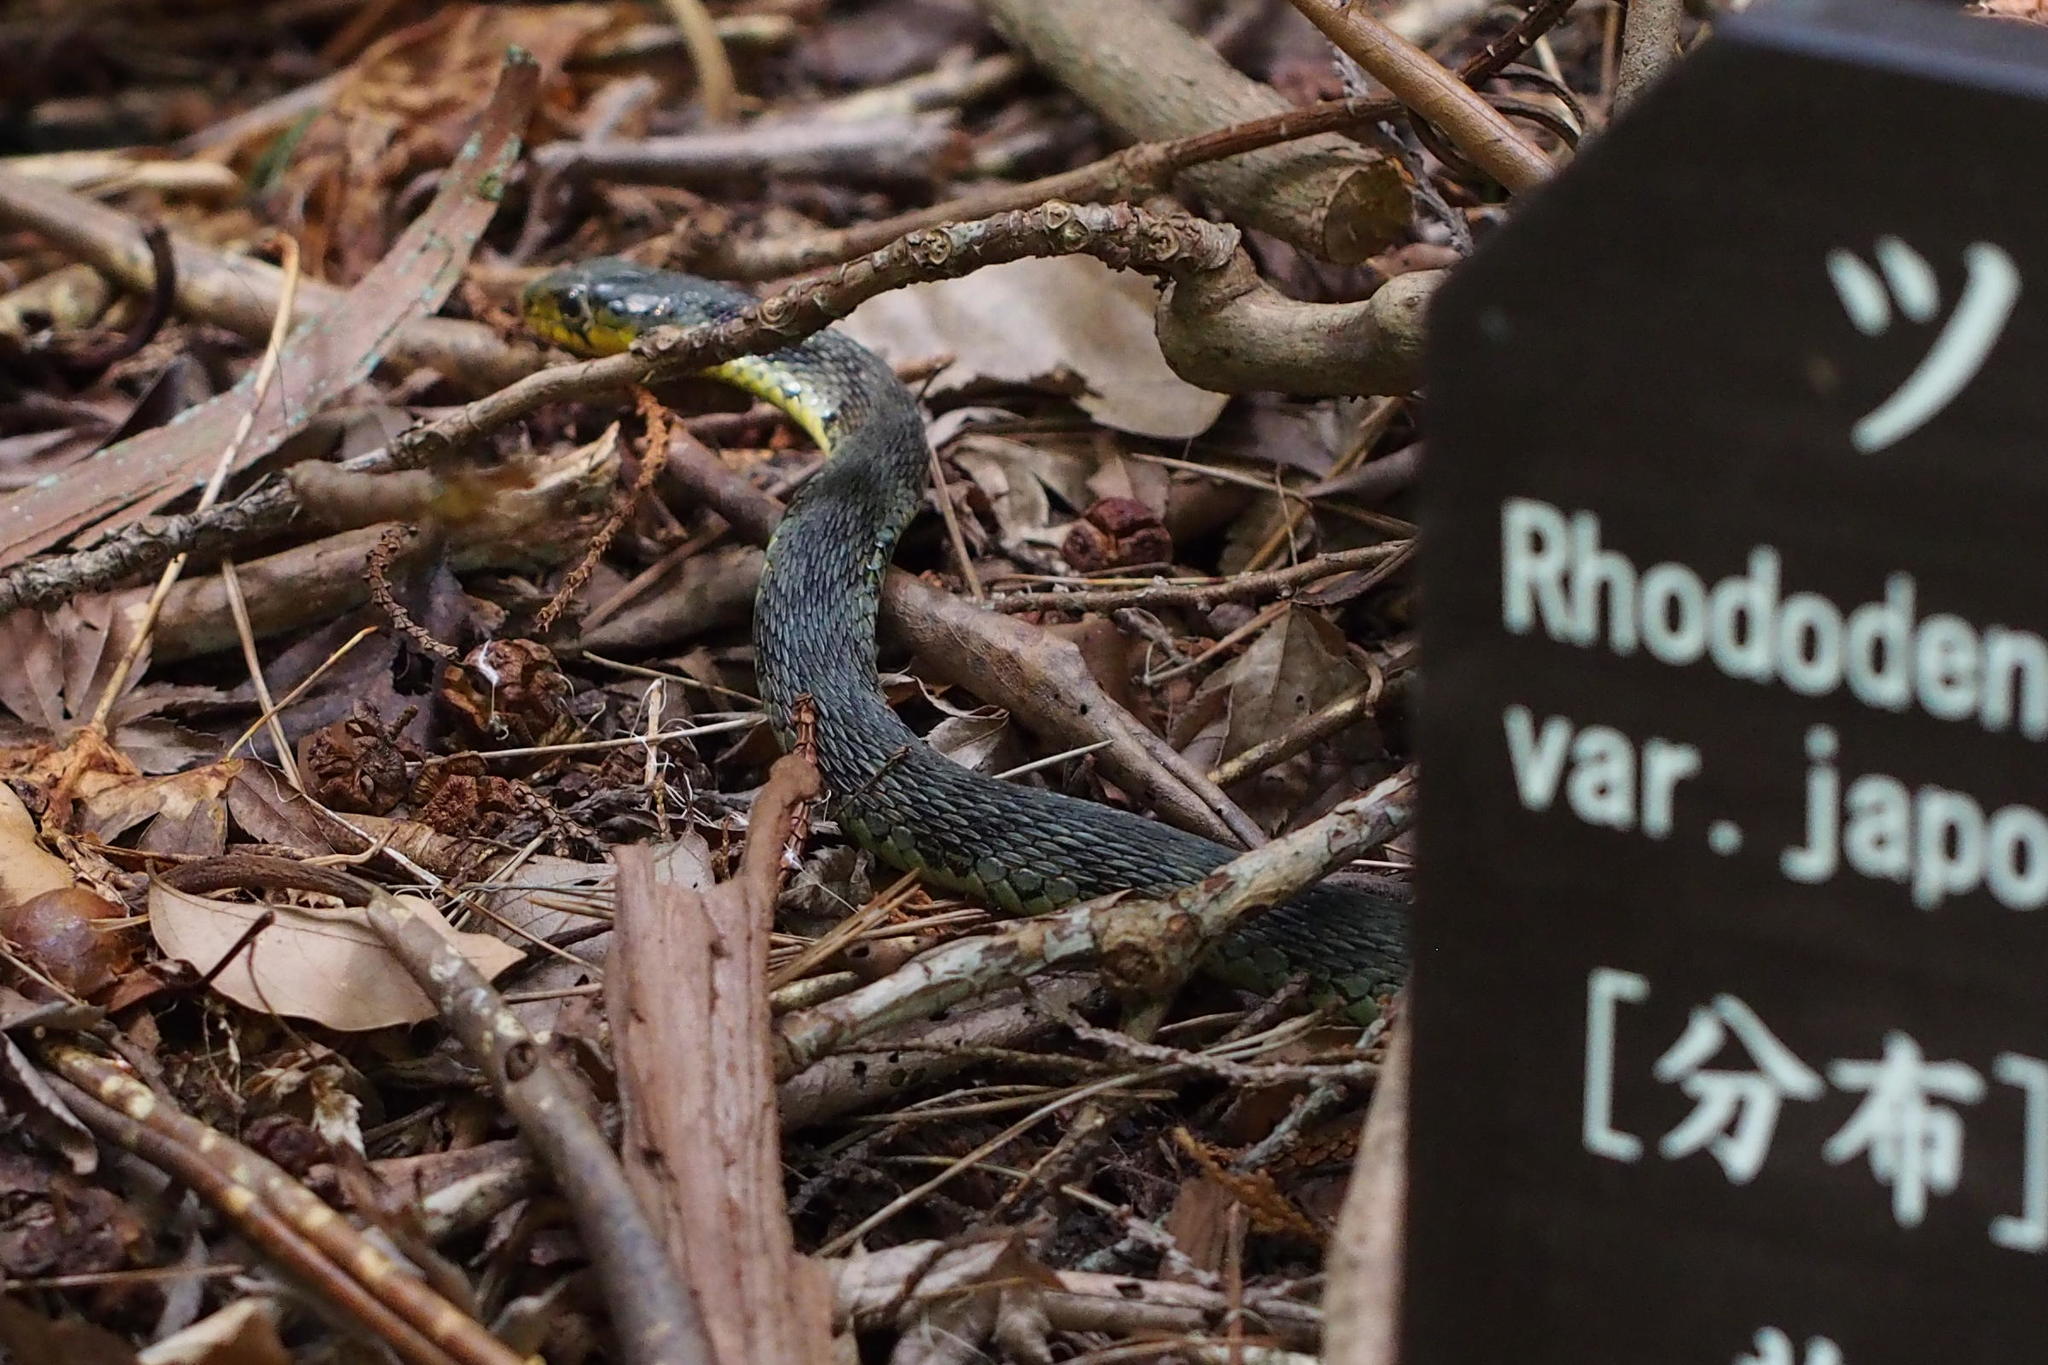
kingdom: Animalia
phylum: Chordata
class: Squamata
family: Colubridae
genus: Rhabdophis
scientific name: Rhabdophis tigrinus
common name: Tiger keelback
